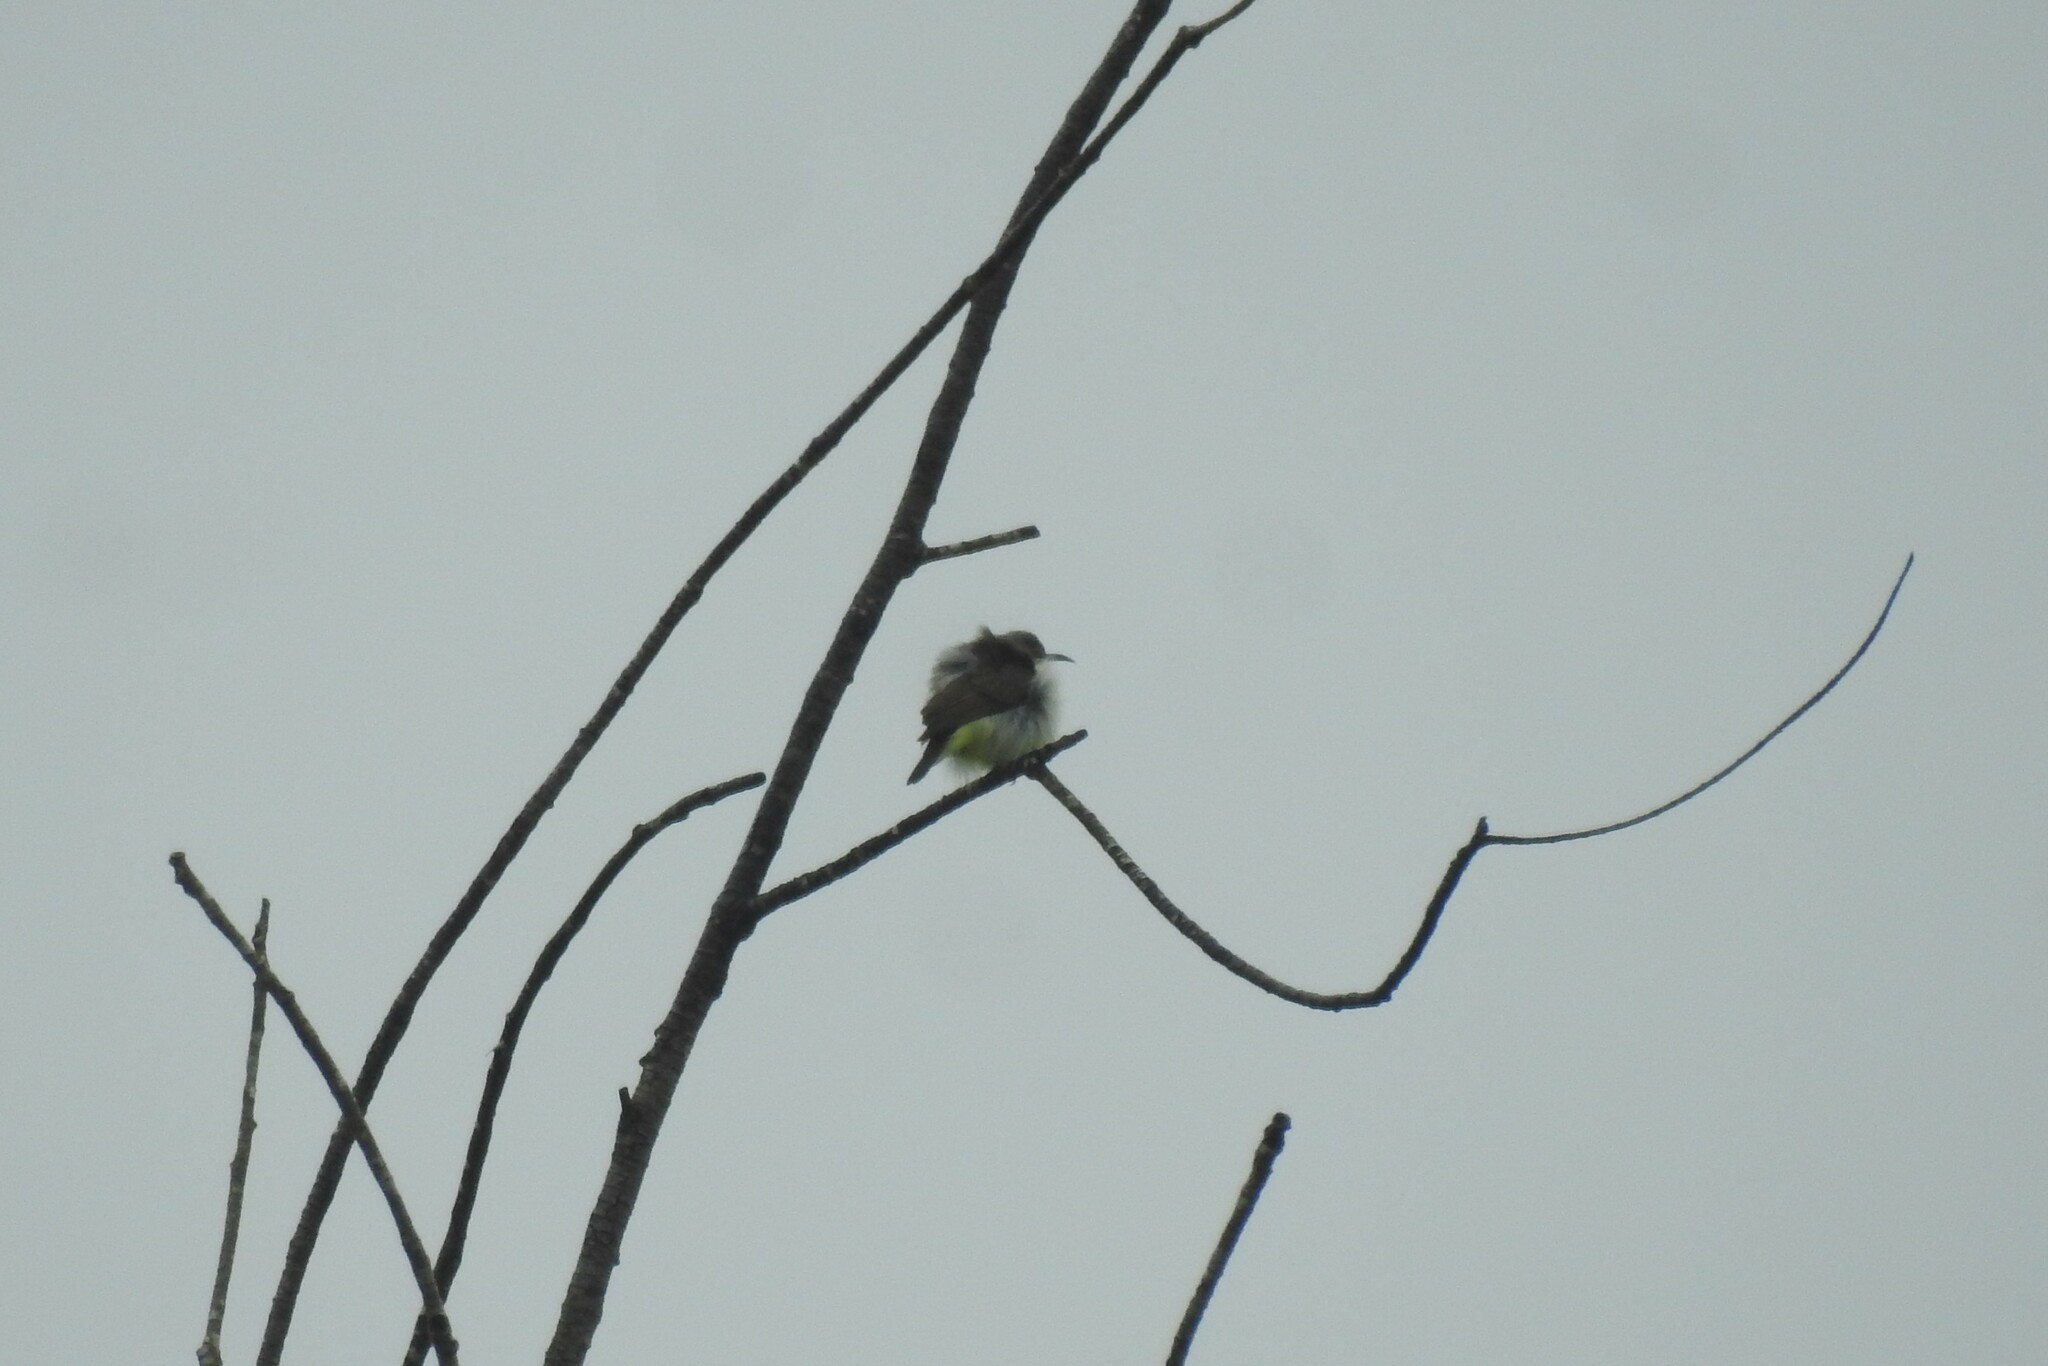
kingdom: Animalia
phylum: Chordata
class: Aves
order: Passeriformes
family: Nectariniidae
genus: Leptocoma
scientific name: Leptocoma zeylonica
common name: Purple-rumped sunbird
